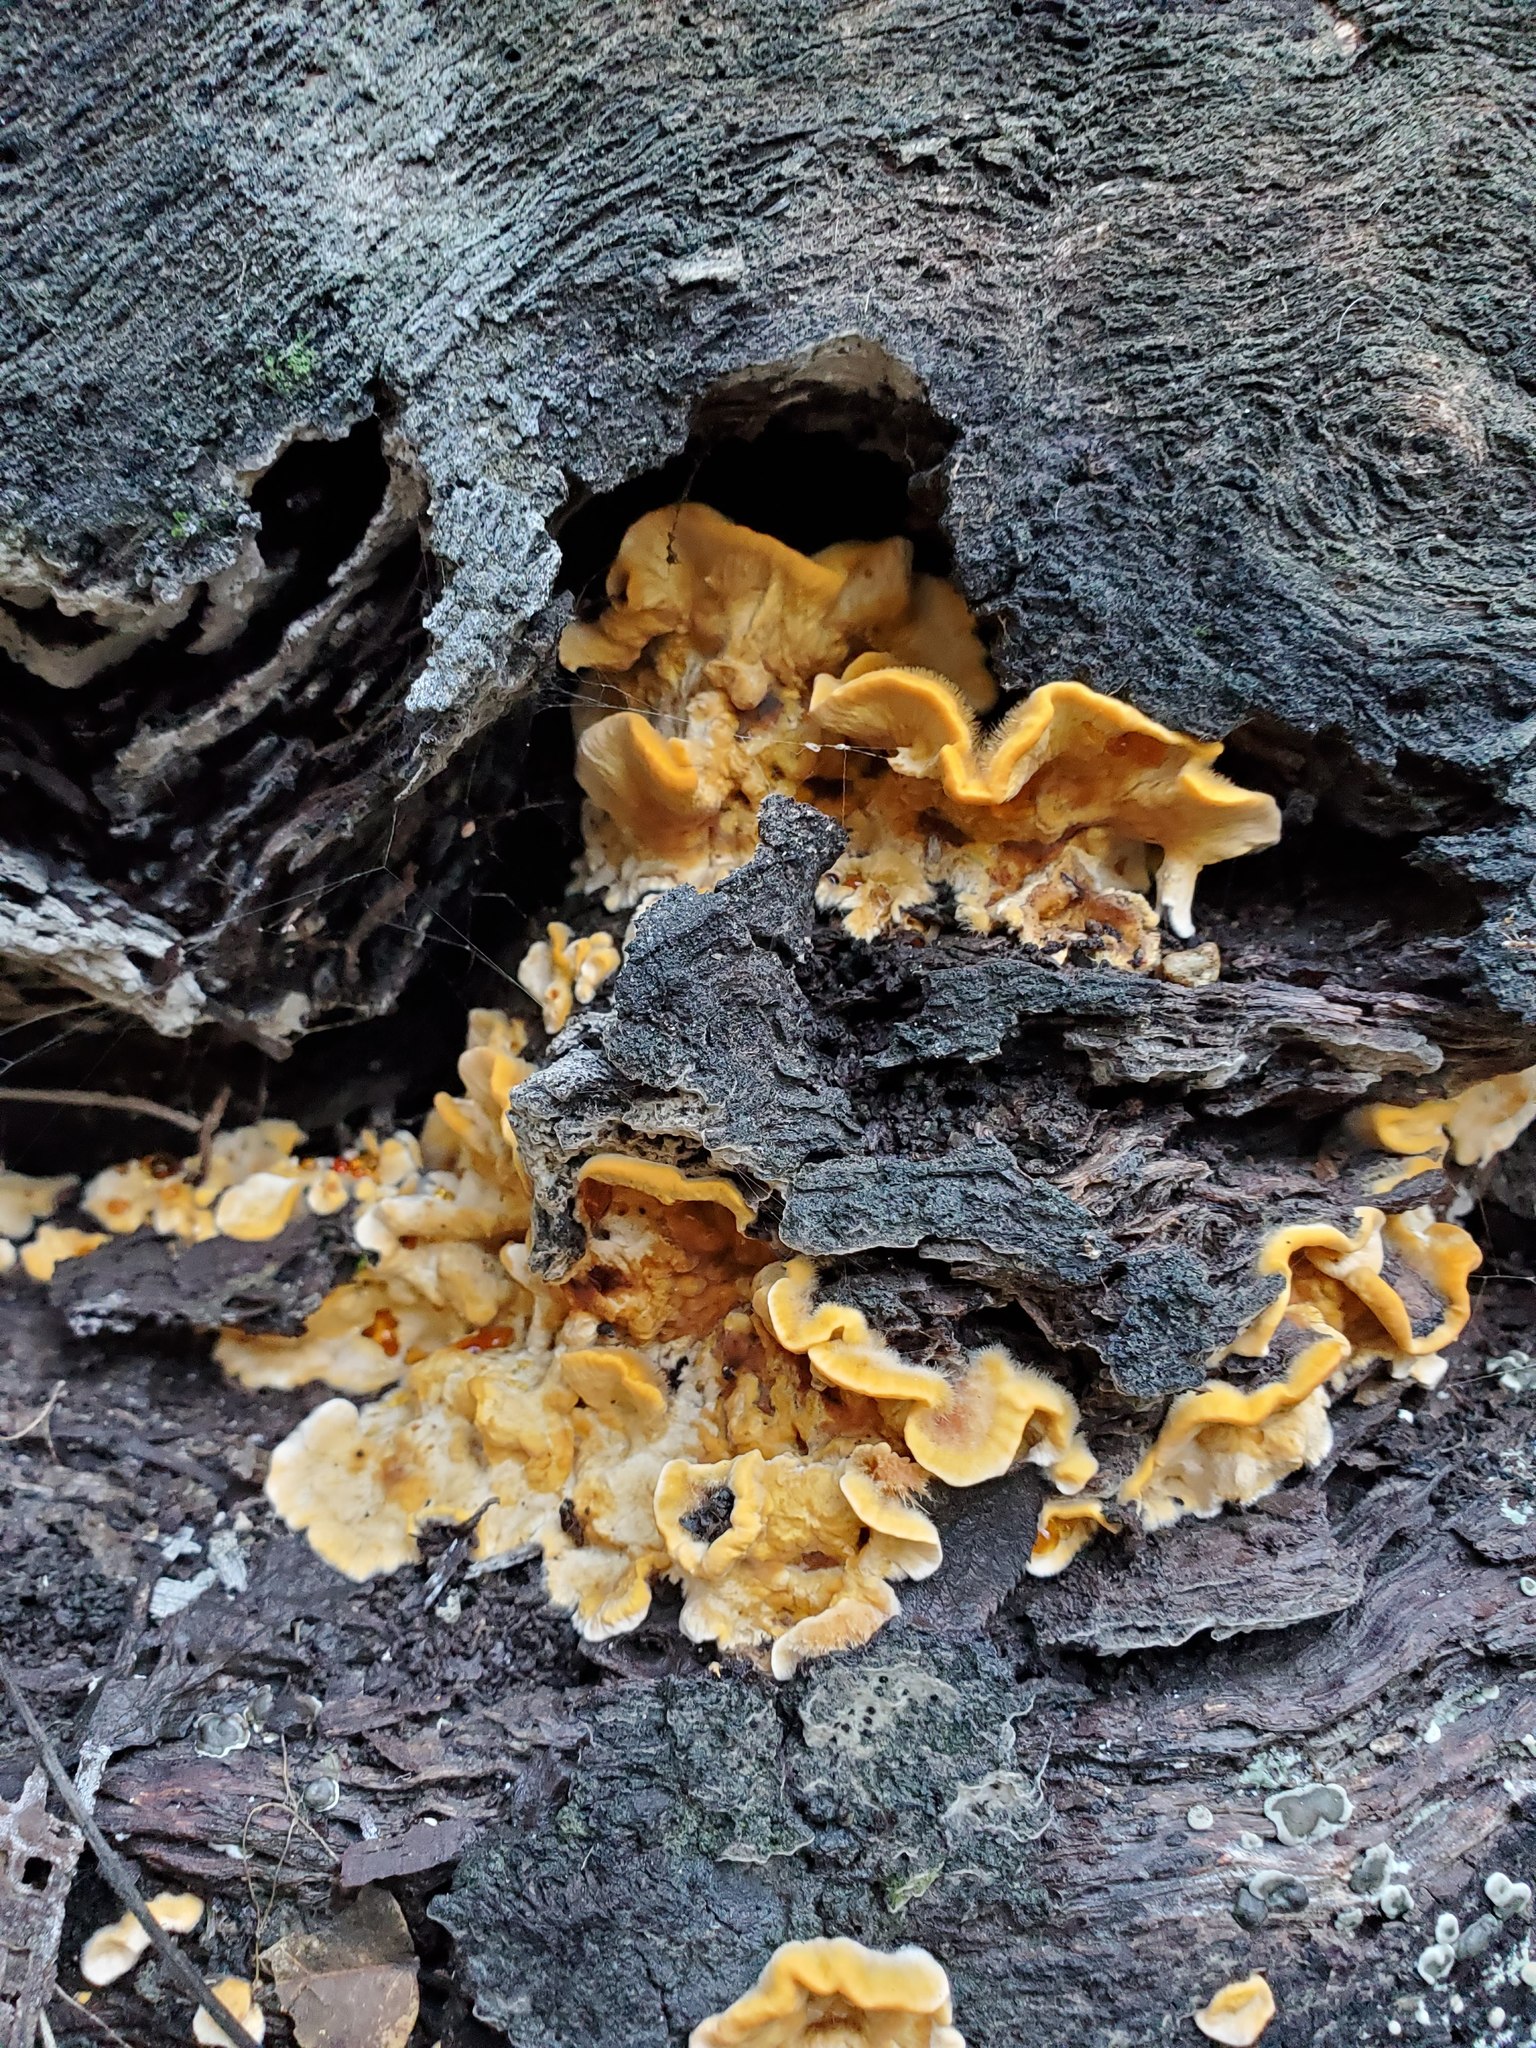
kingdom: Fungi
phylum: Basidiomycota
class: Agaricomycetes
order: Russulales
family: Stereaceae
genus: Stereum
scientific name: Stereum hirsutum
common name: Hairy curtain crust
